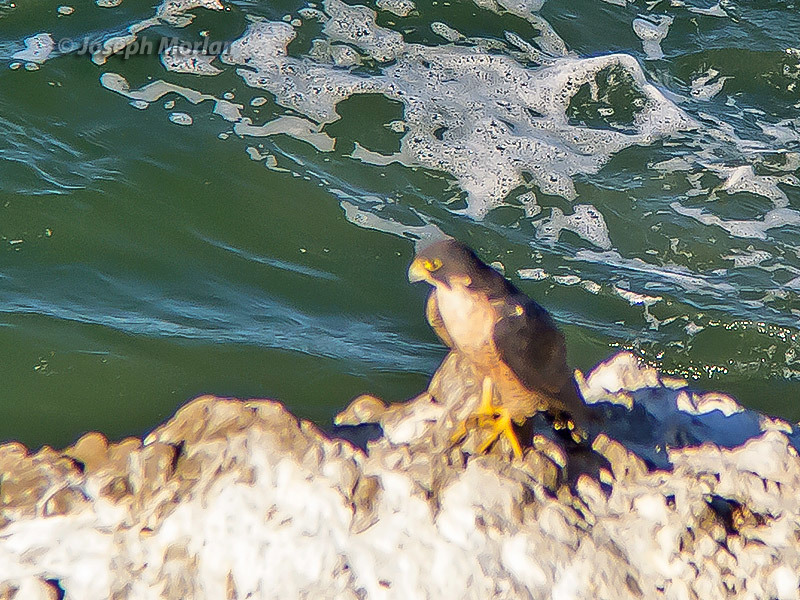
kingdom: Animalia
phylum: Chordata
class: Aves
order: Falconiformes
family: Falconidae
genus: Falco
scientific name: Falco peregrinus
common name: Peregrine falcon
